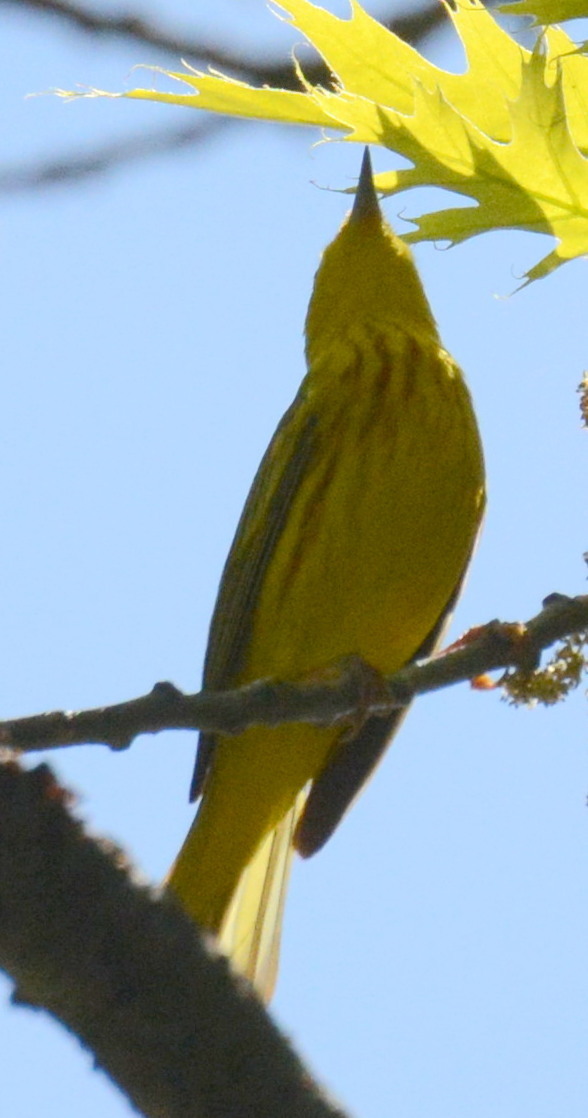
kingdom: Animalia
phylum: Chordata
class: Aves
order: Passeriformes
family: Parulidae
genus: Setophaga
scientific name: Setophaga petechia
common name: Yellow warbler
